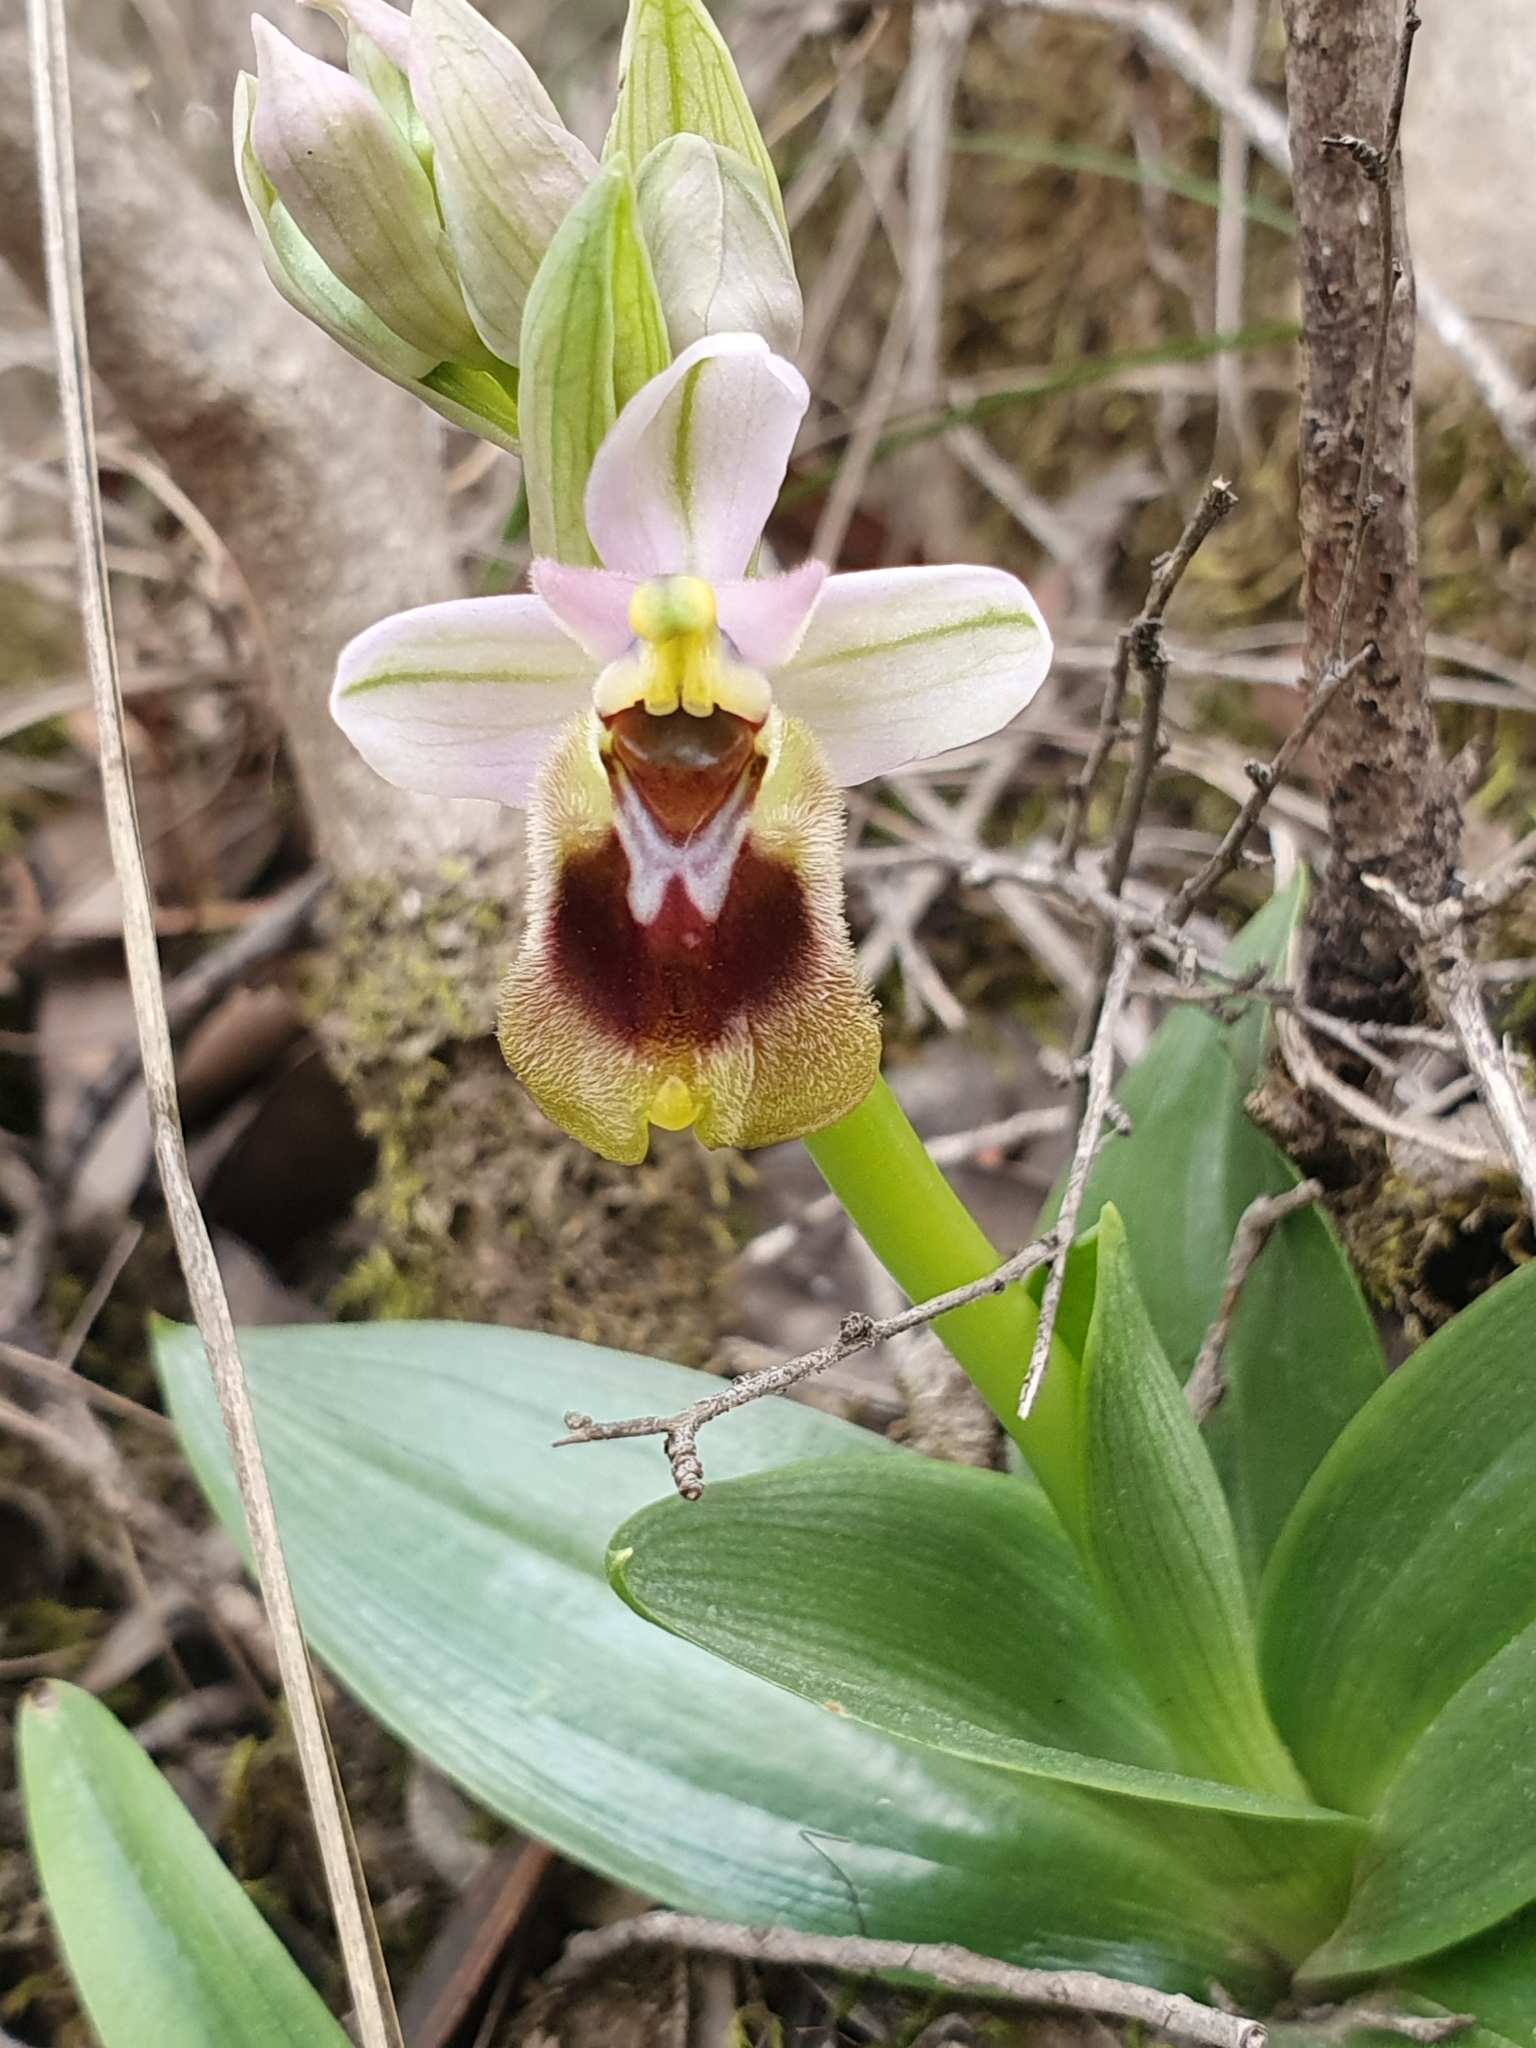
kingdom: Plantae
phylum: Tracheophyta
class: Liliopsida
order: Asparagales
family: Orchidaceae
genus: Ophrys
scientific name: Ophrys tenthredinifera
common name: Sawfly orchid
